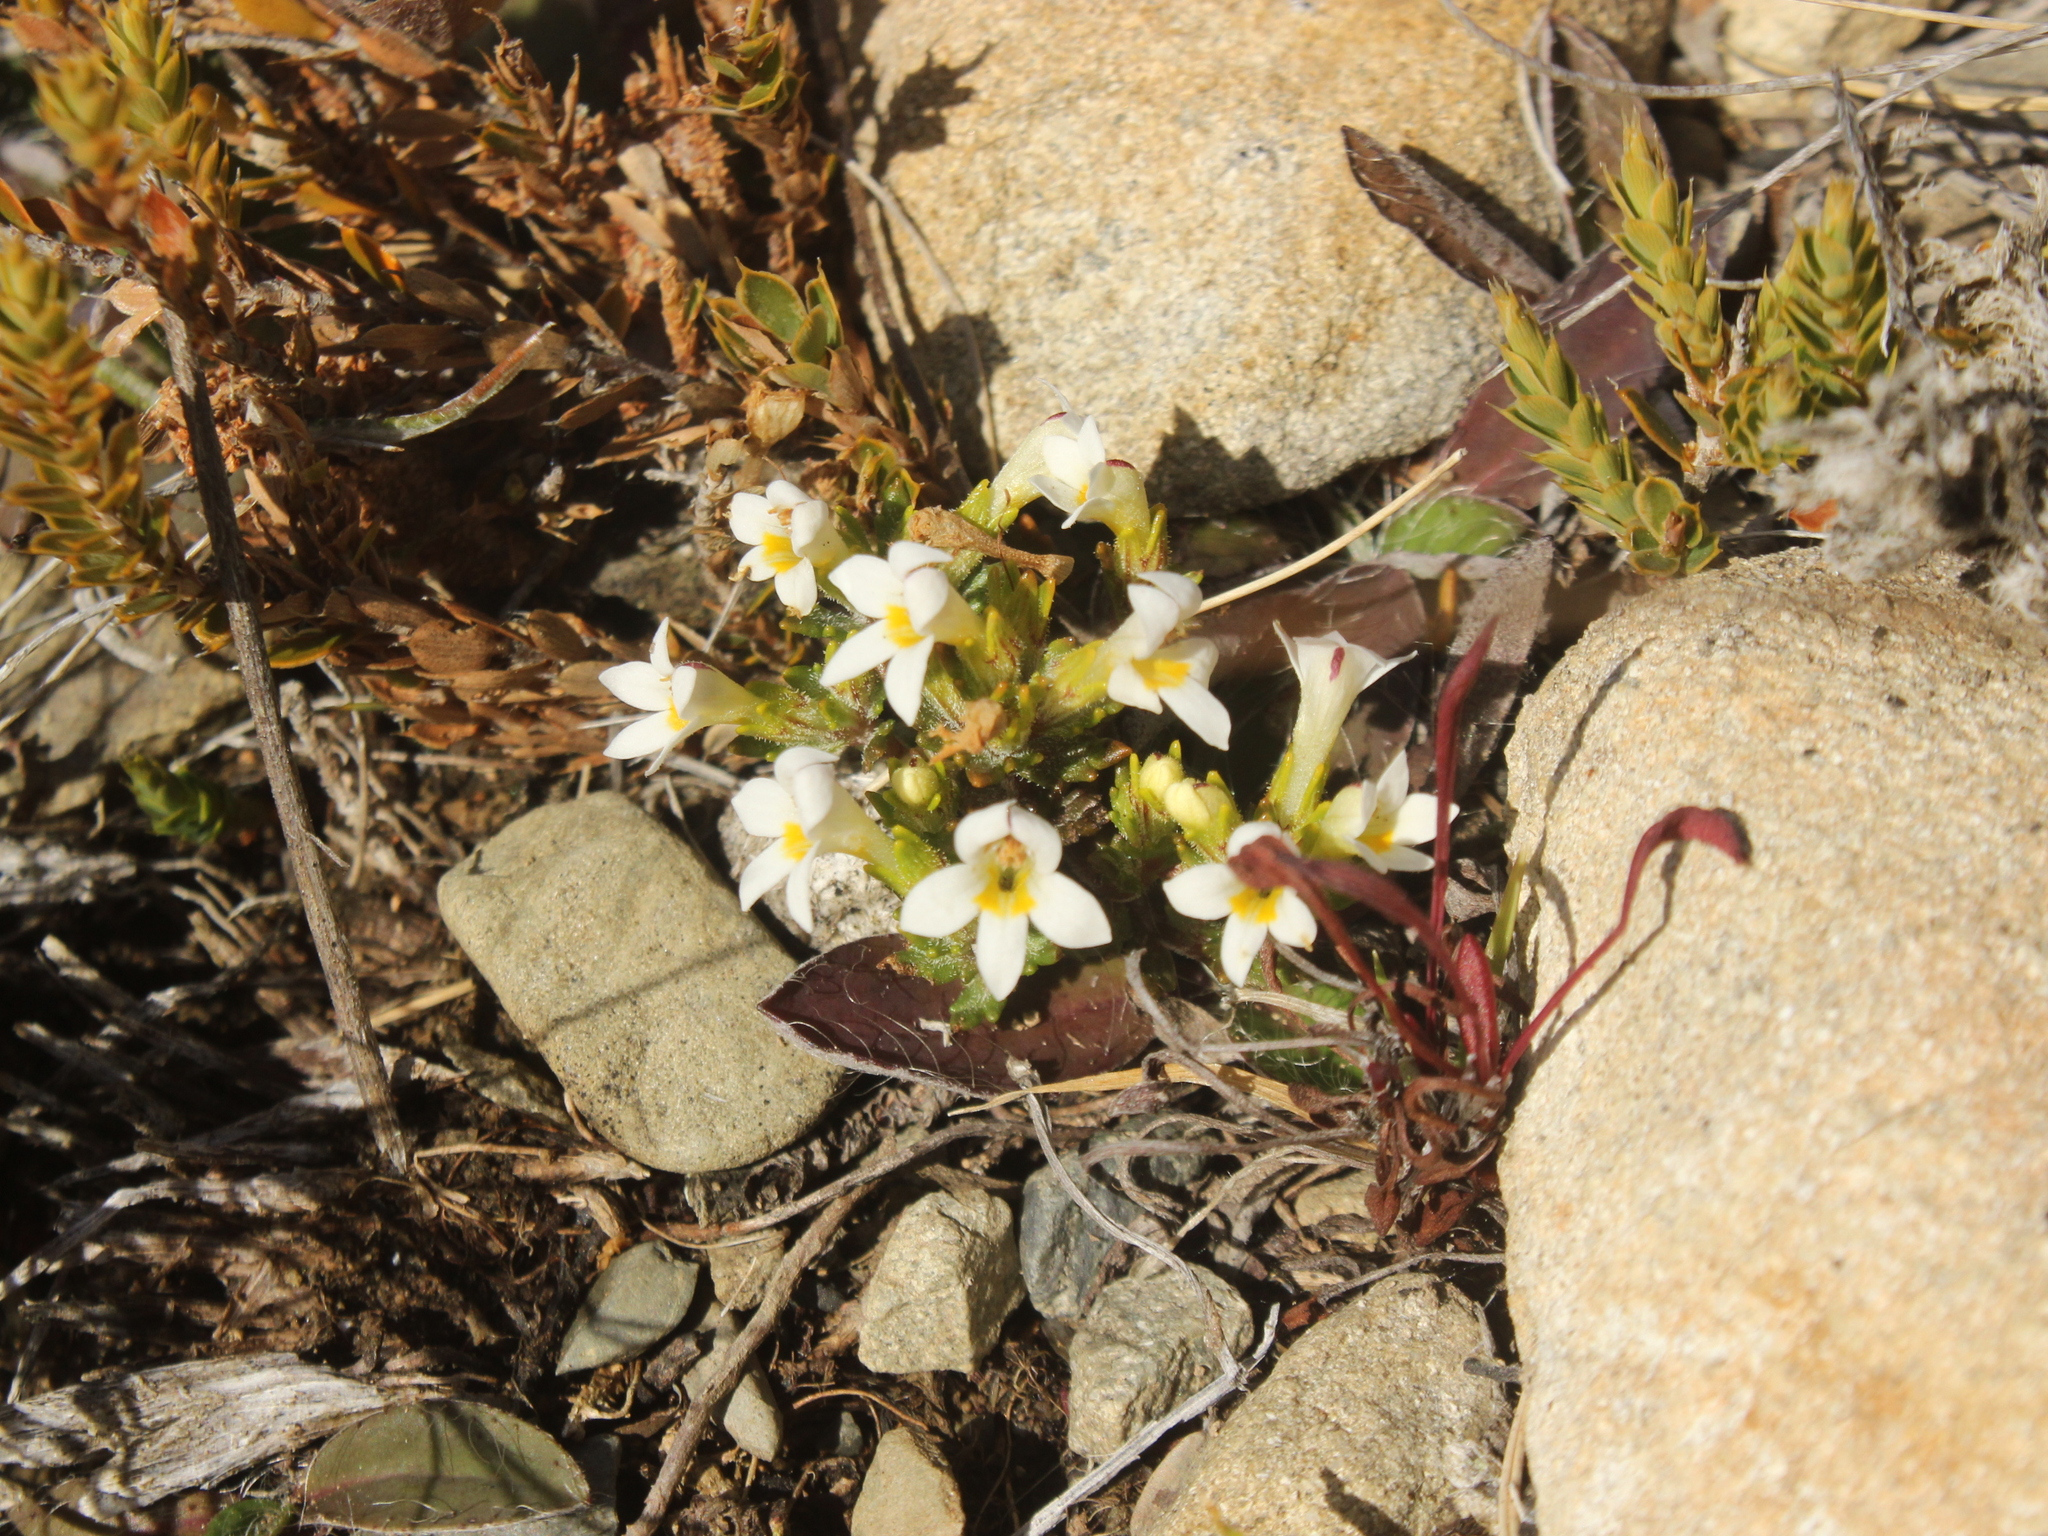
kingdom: Plantae
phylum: Tracheophyta
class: Magnoliopsida
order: Lamiales
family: Orobanchaceae
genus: Euphrasia
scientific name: Euphrasia zelandica
